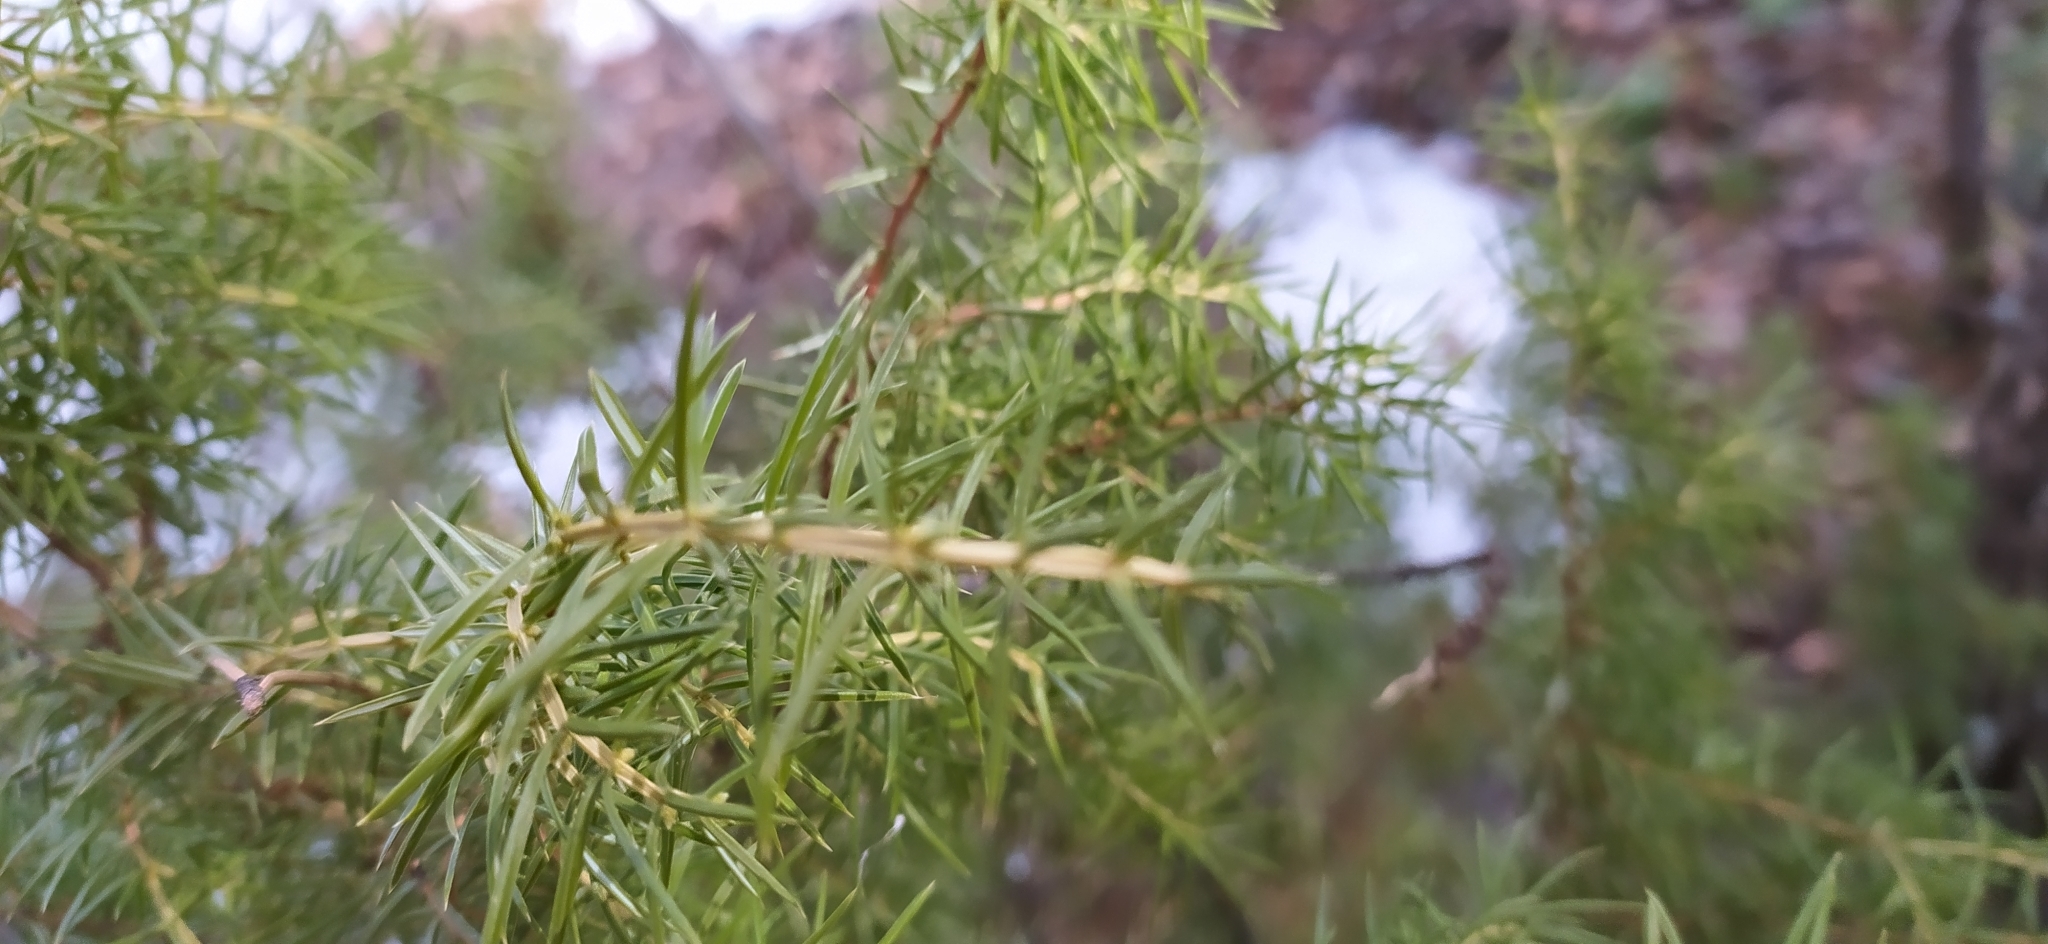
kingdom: Plantae
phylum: Tracheophyta
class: Pinopsida
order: Pinales
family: Cupressaceae
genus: Juniperus
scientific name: Juniperus communis
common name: Common juniper
